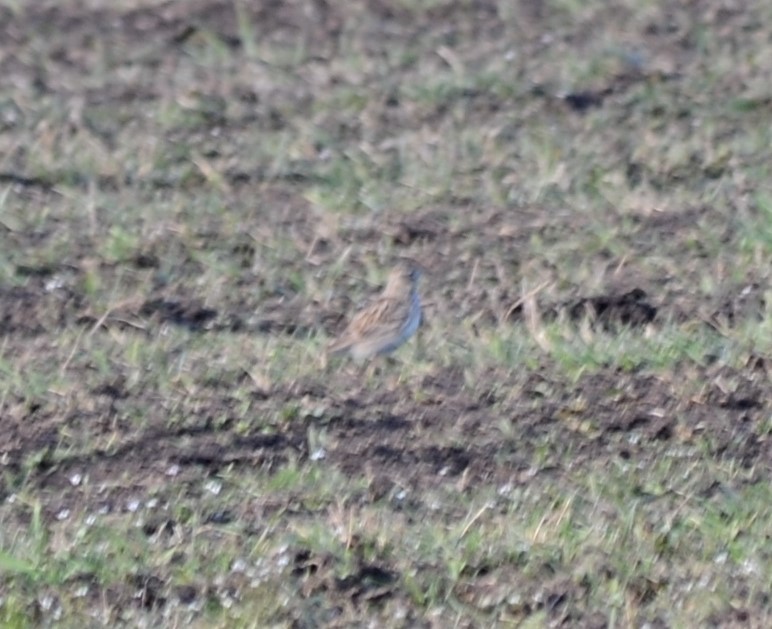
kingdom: Animalia
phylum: Chordata
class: Aves
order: Passeriformes
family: Alaudidae
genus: Alauda
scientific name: Alauda arvensis
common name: Eurasian skylark
